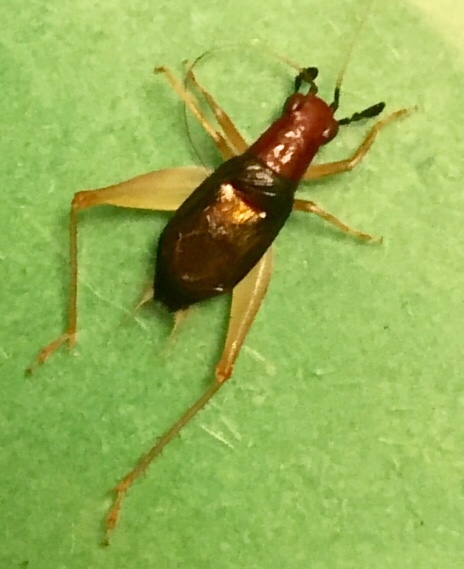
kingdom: Animalia
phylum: Arthropoda
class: Insecta
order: Orthoptera
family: Trigonidiidae
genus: Phyllopalpus
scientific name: Phyllopalpus pulchellus
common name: Handsome trig
